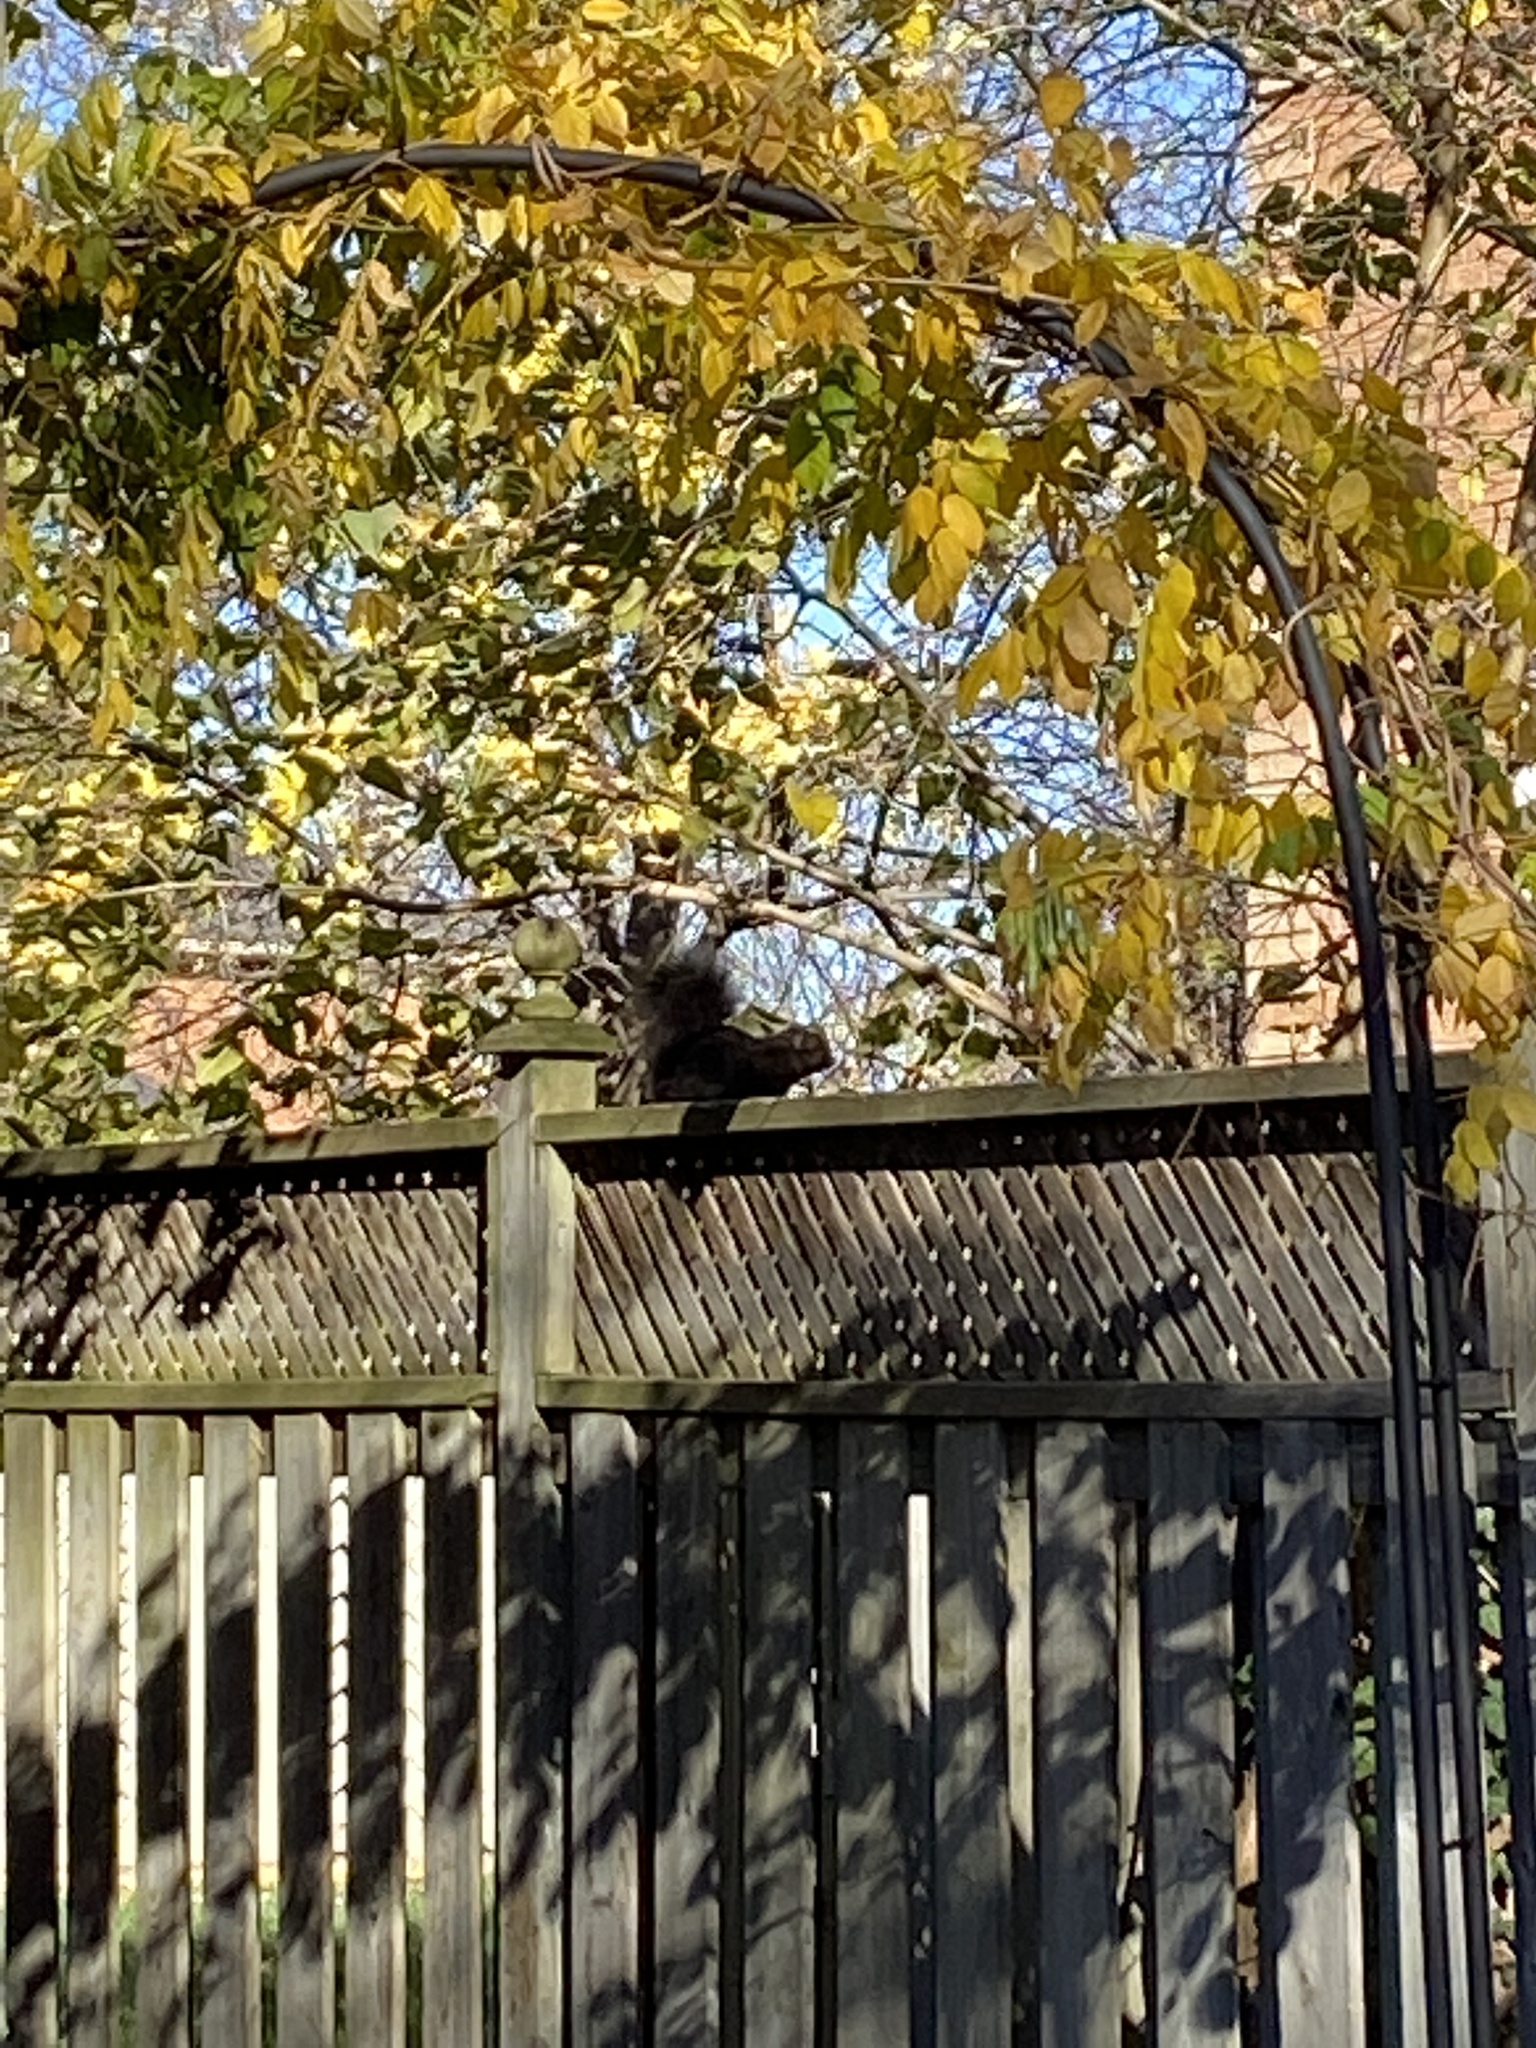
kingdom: Animalia
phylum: Chordata
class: Mammalia
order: Rodentia
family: Sciuridae
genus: Sciurus
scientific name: Sciurus carolinensis
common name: Eastern gray squirrel
